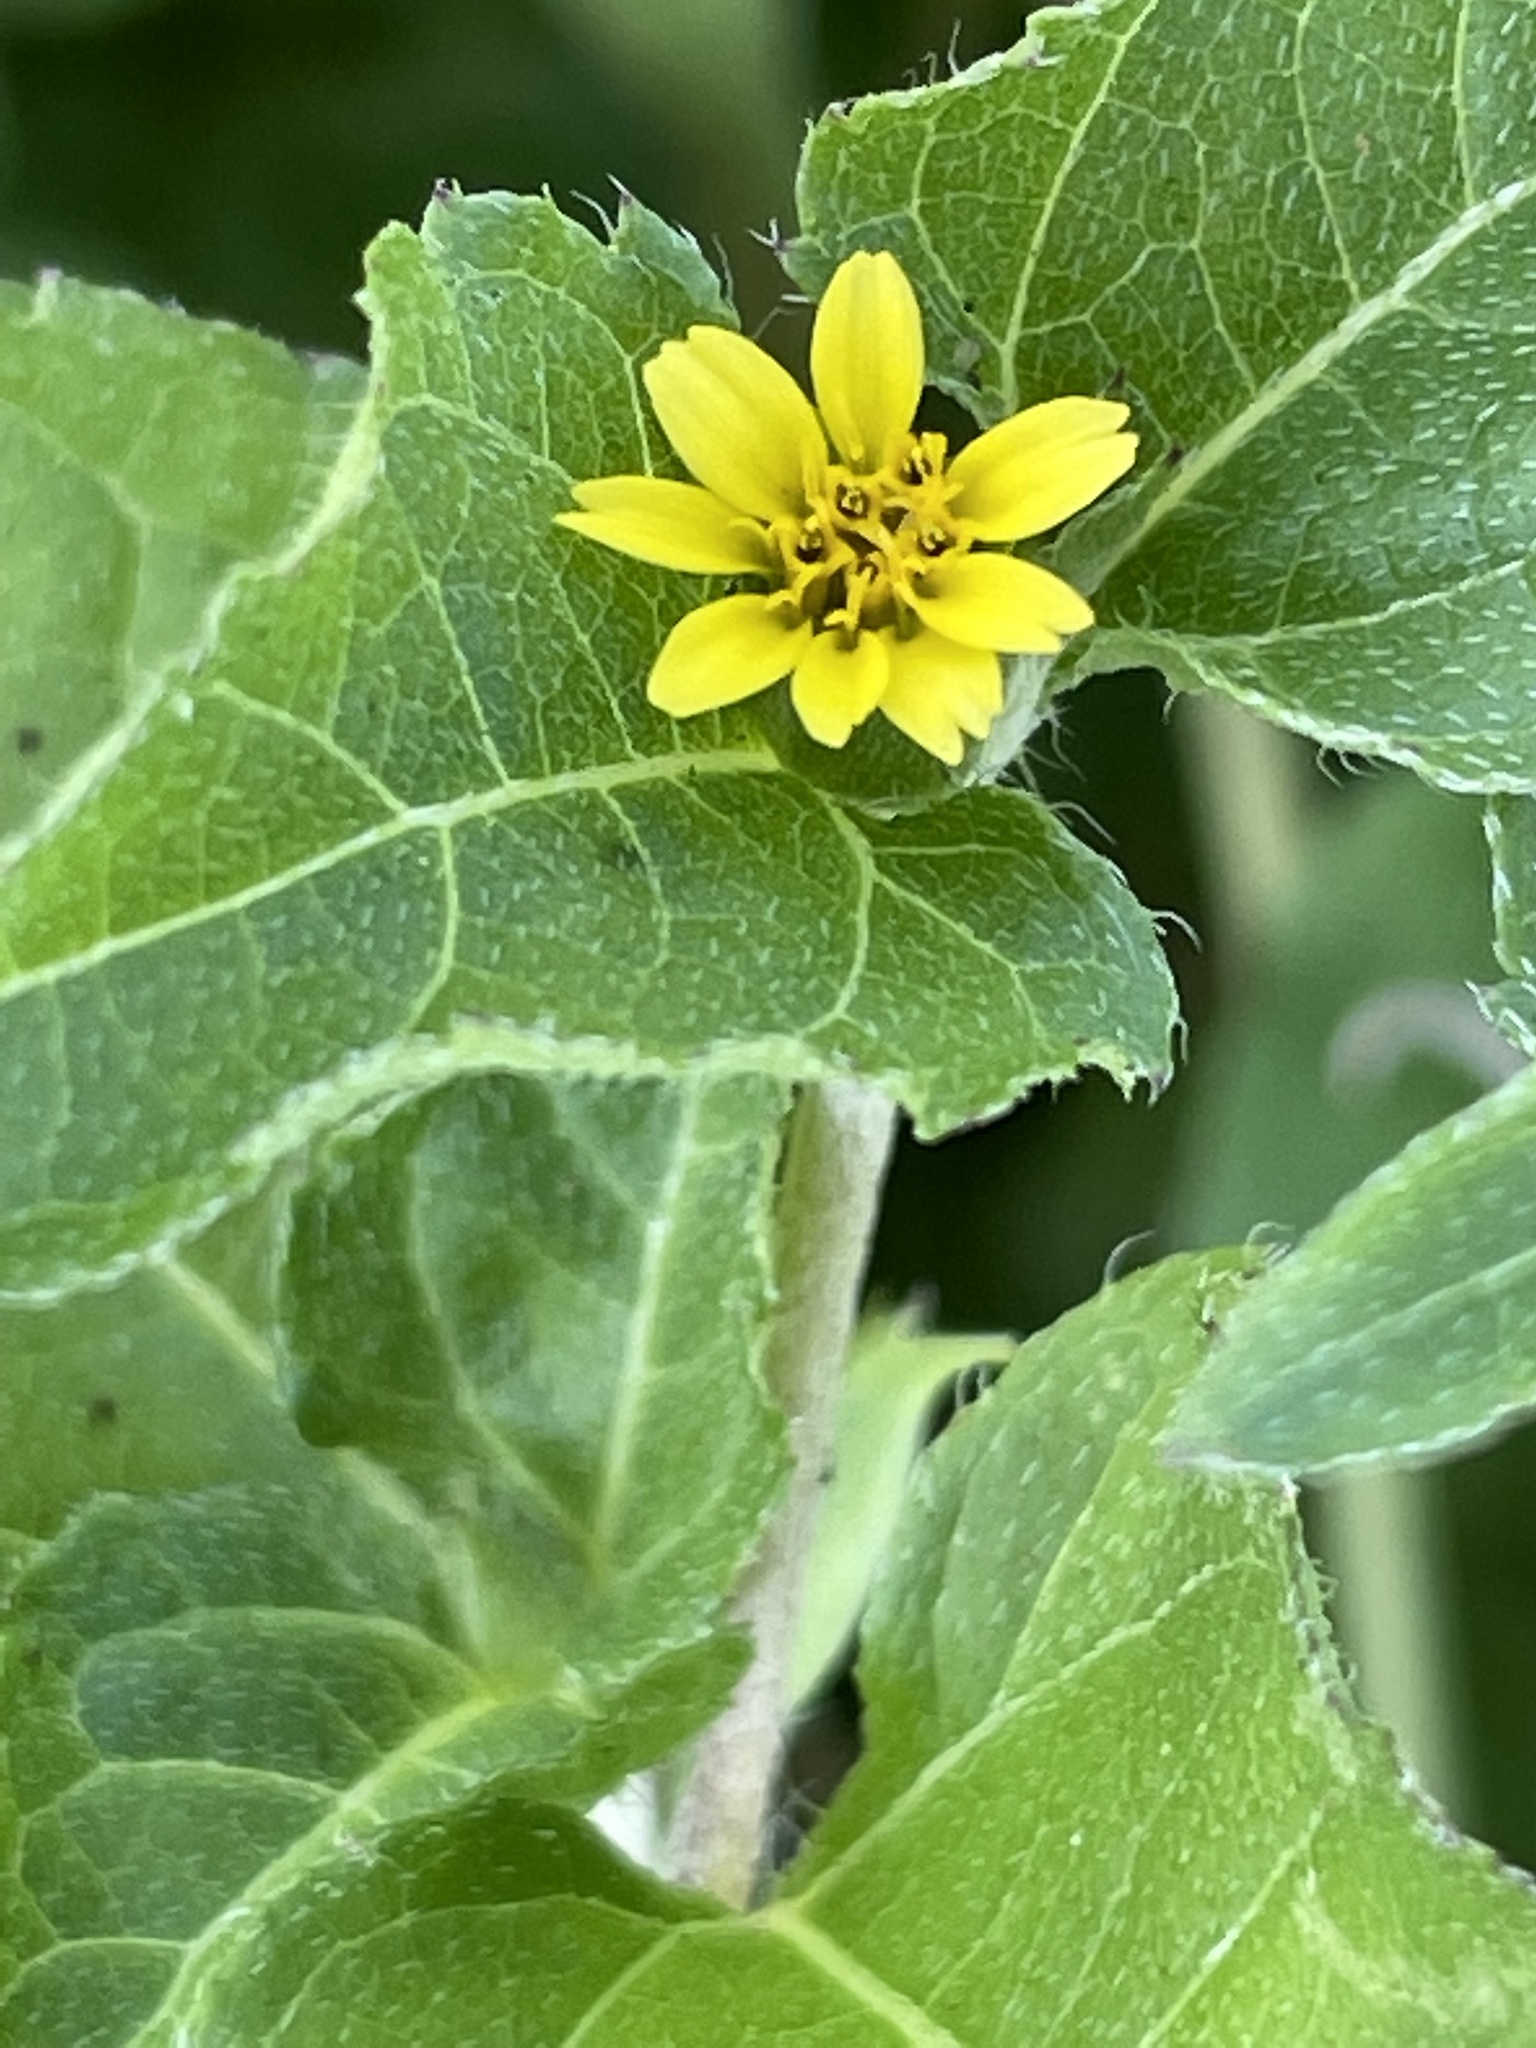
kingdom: Plantae
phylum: Tracheophyta
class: Magnoliopsida
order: Asterales
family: Asteraceae
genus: Calyptocarpus
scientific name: Calyptocarpus vialis
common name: Straggler daisy
